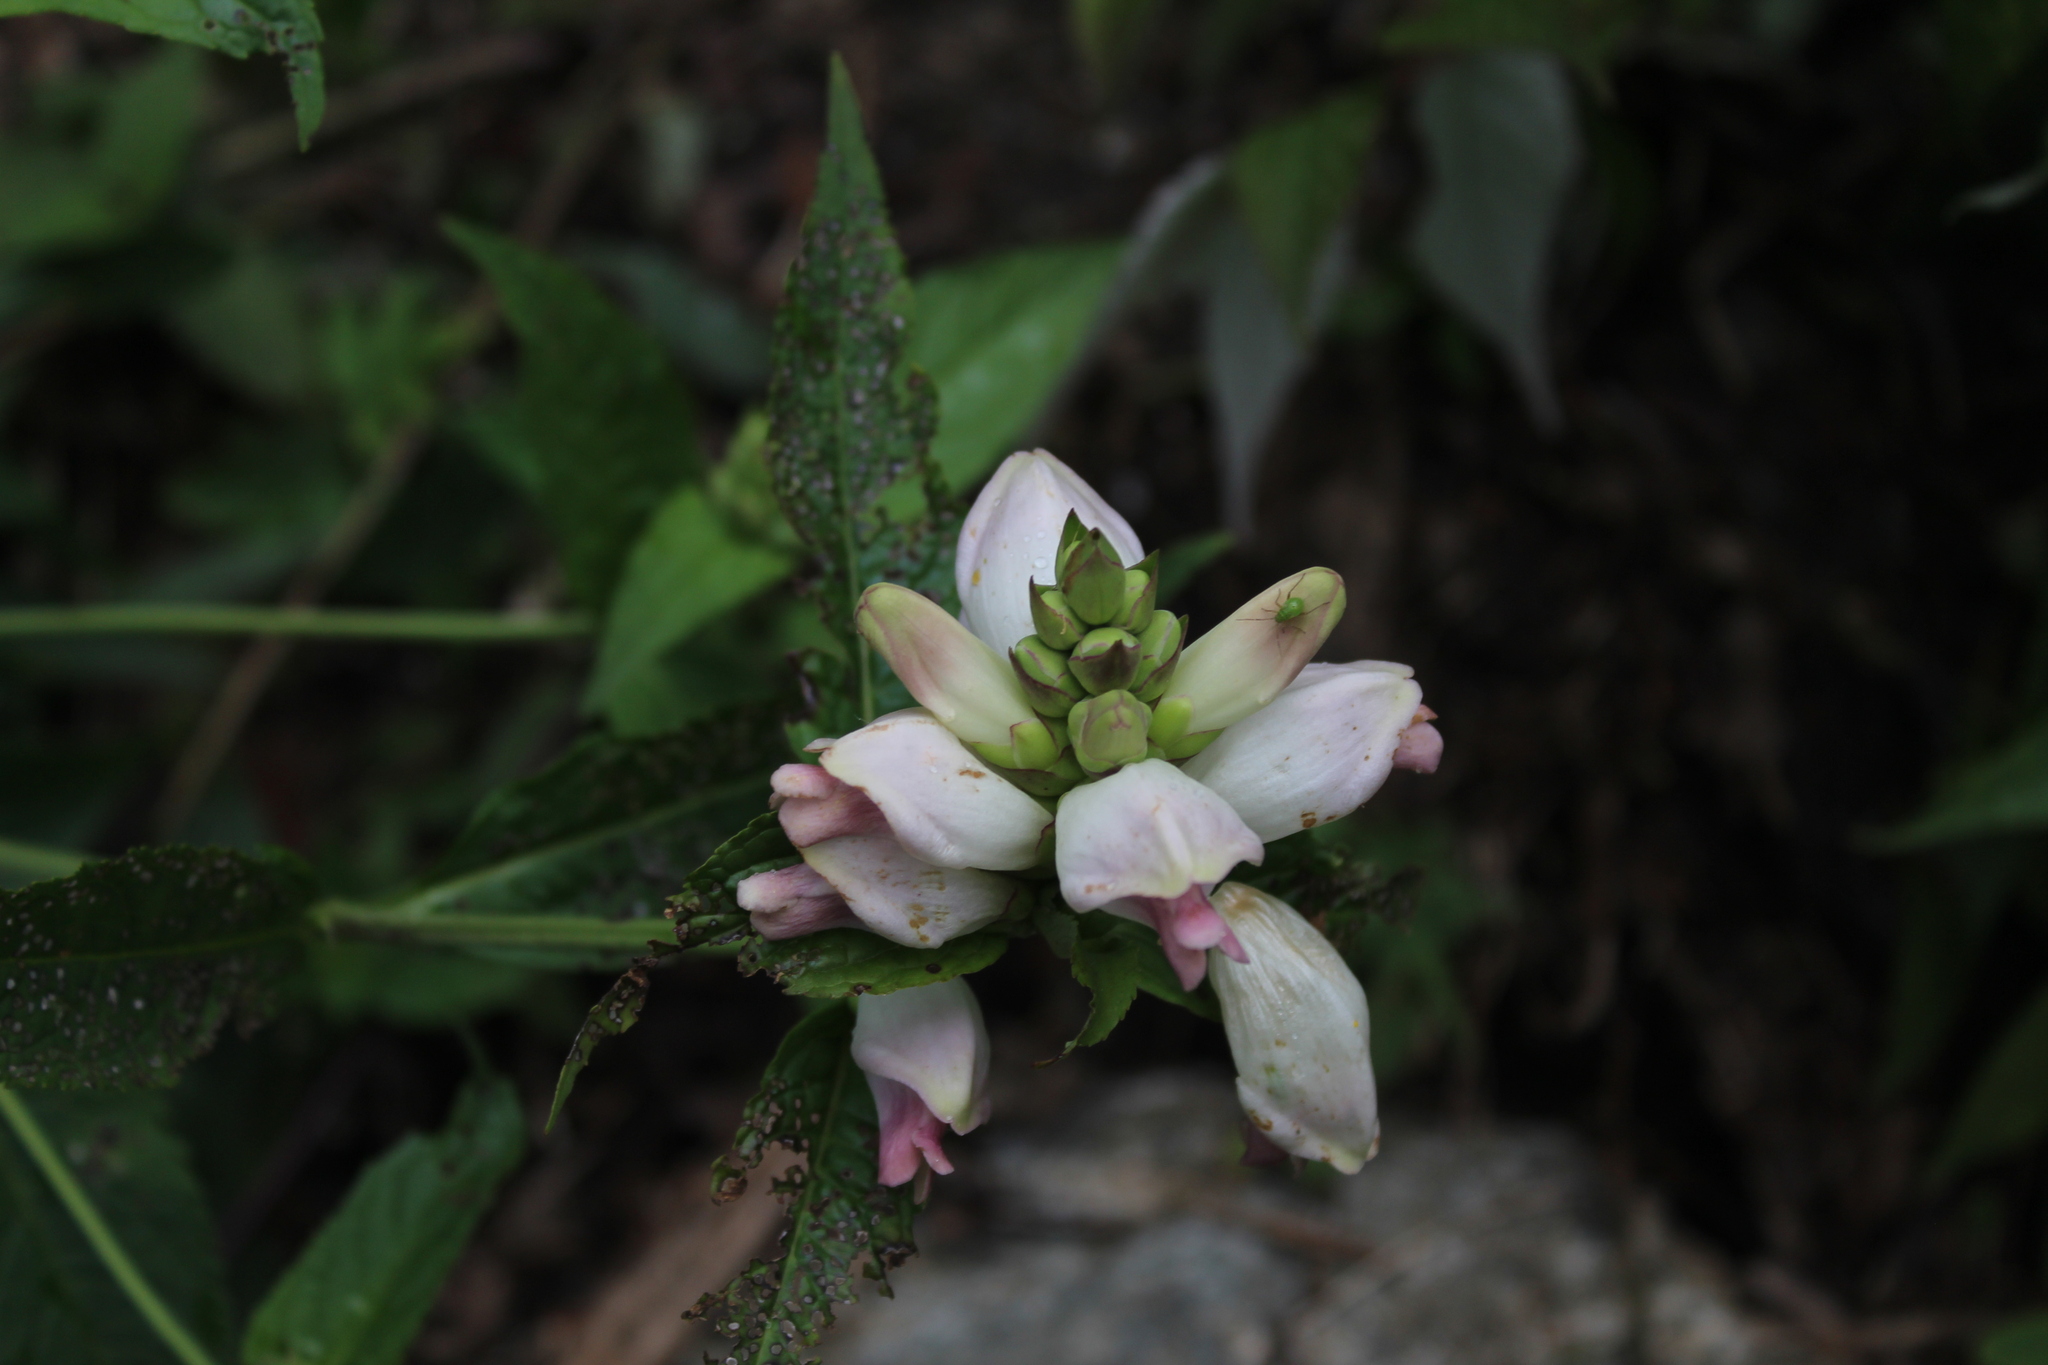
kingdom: Plantae
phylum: Tracheophyta
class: Magnoliopsida
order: Lamiales
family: Plantaginaceae
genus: Chelone
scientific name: Chelone glabra
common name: Snakehead
